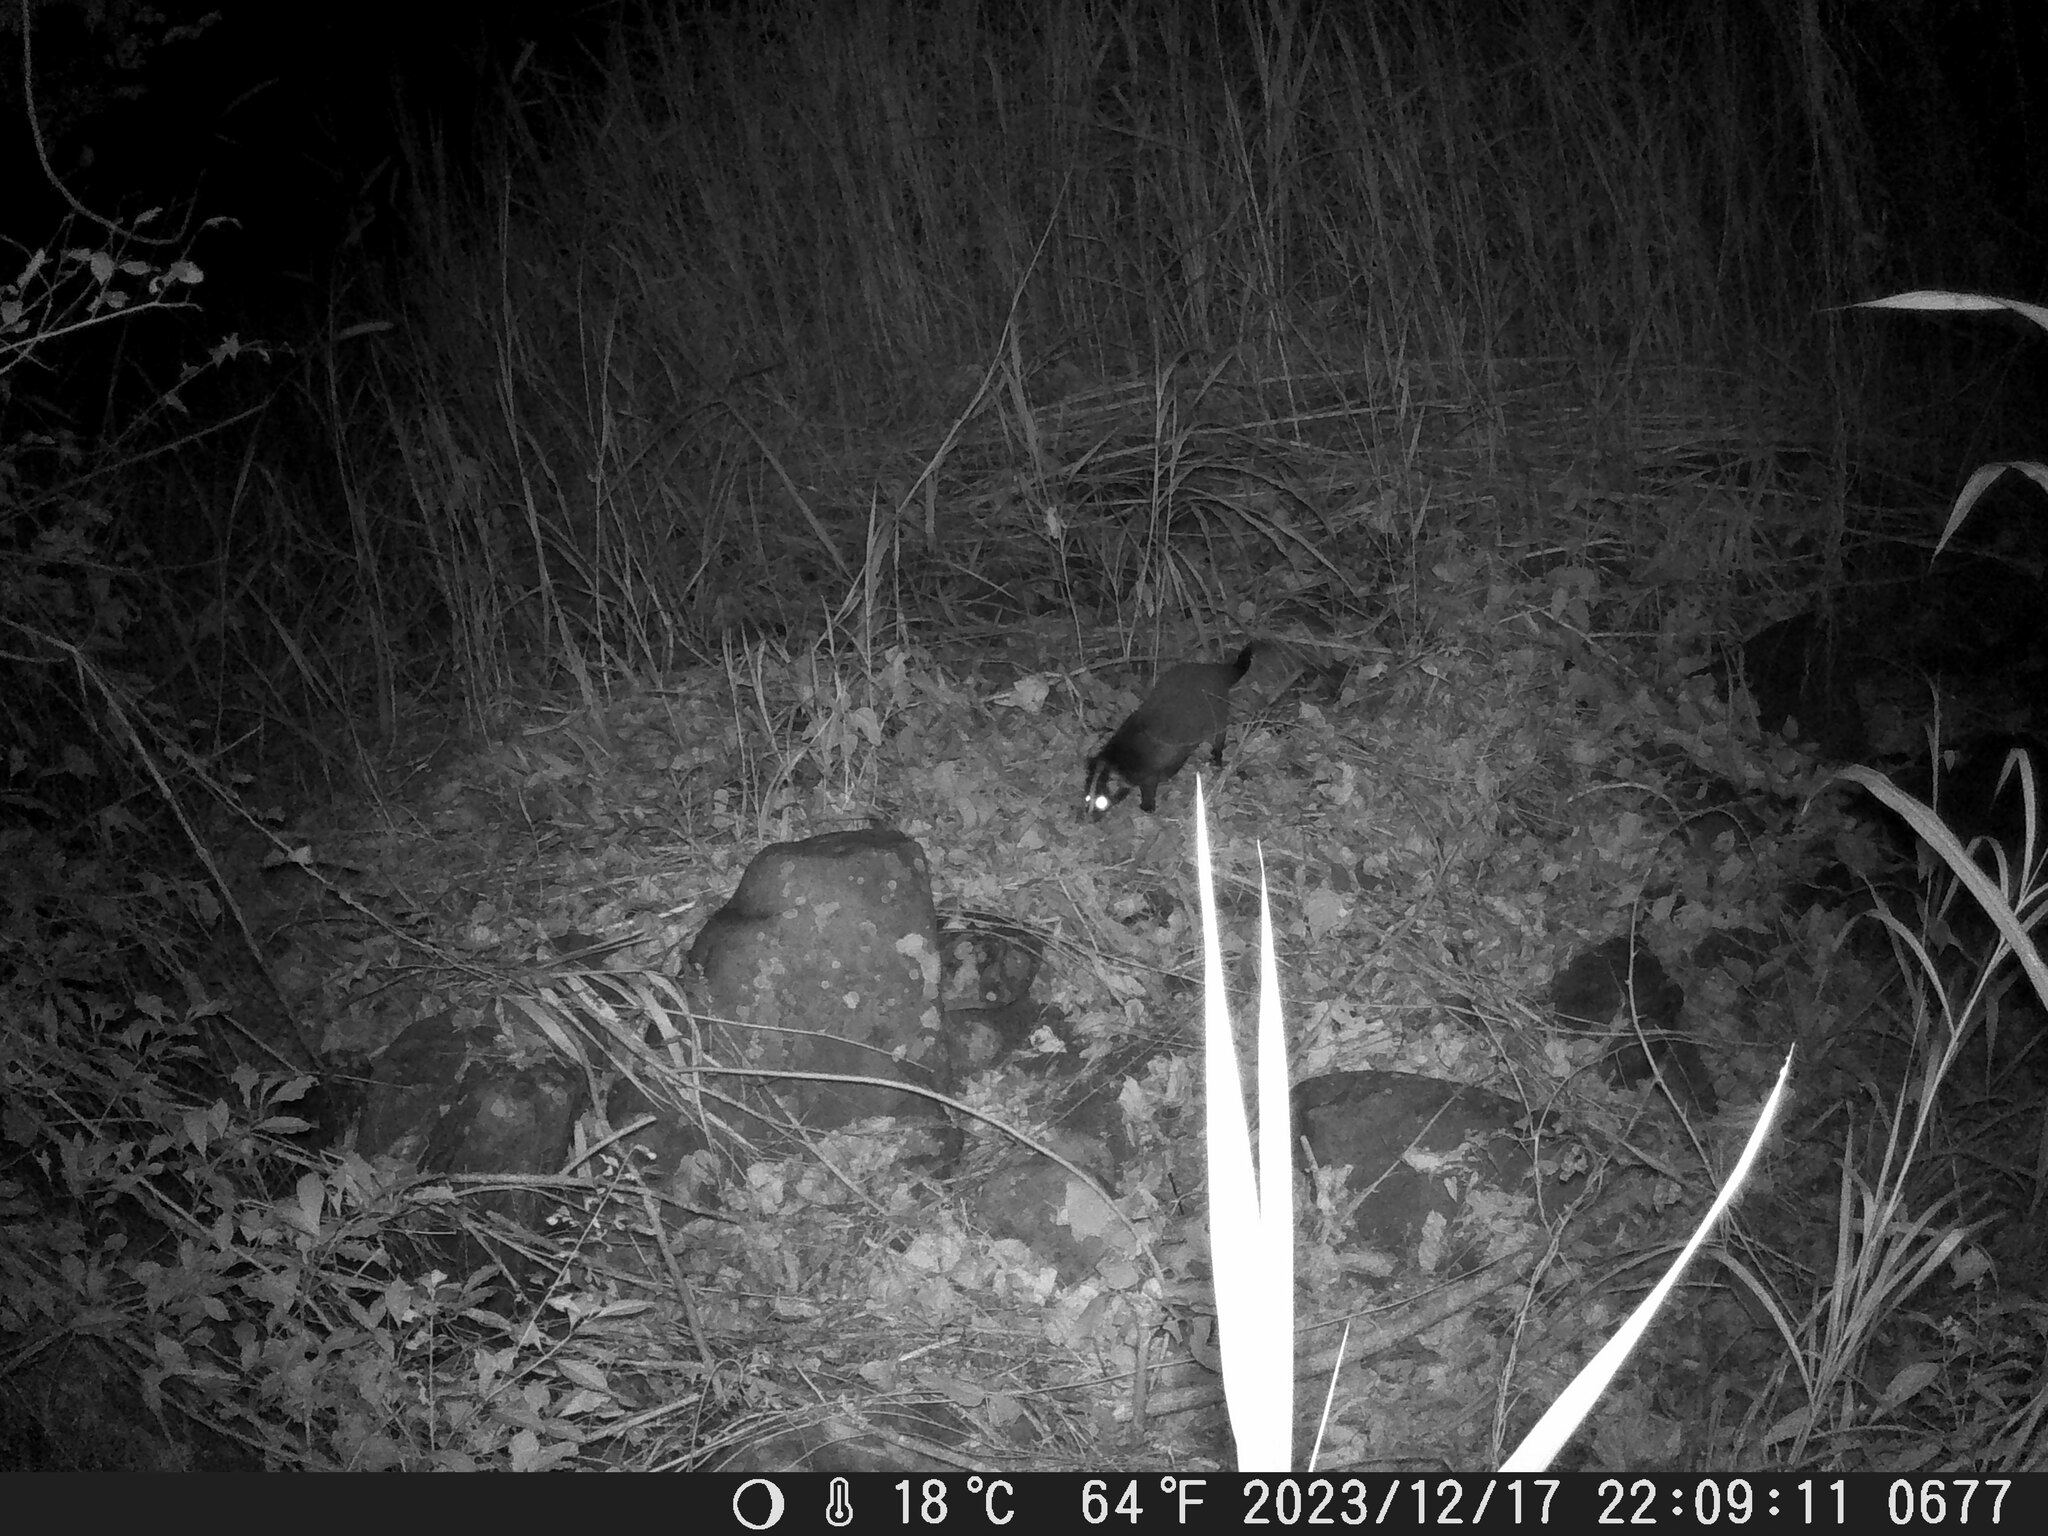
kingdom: Animalia
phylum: Chordata
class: Mammalia
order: Carnivora
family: Viverridae
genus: Paguma
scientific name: Paguma larvata
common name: Masked palm civet
